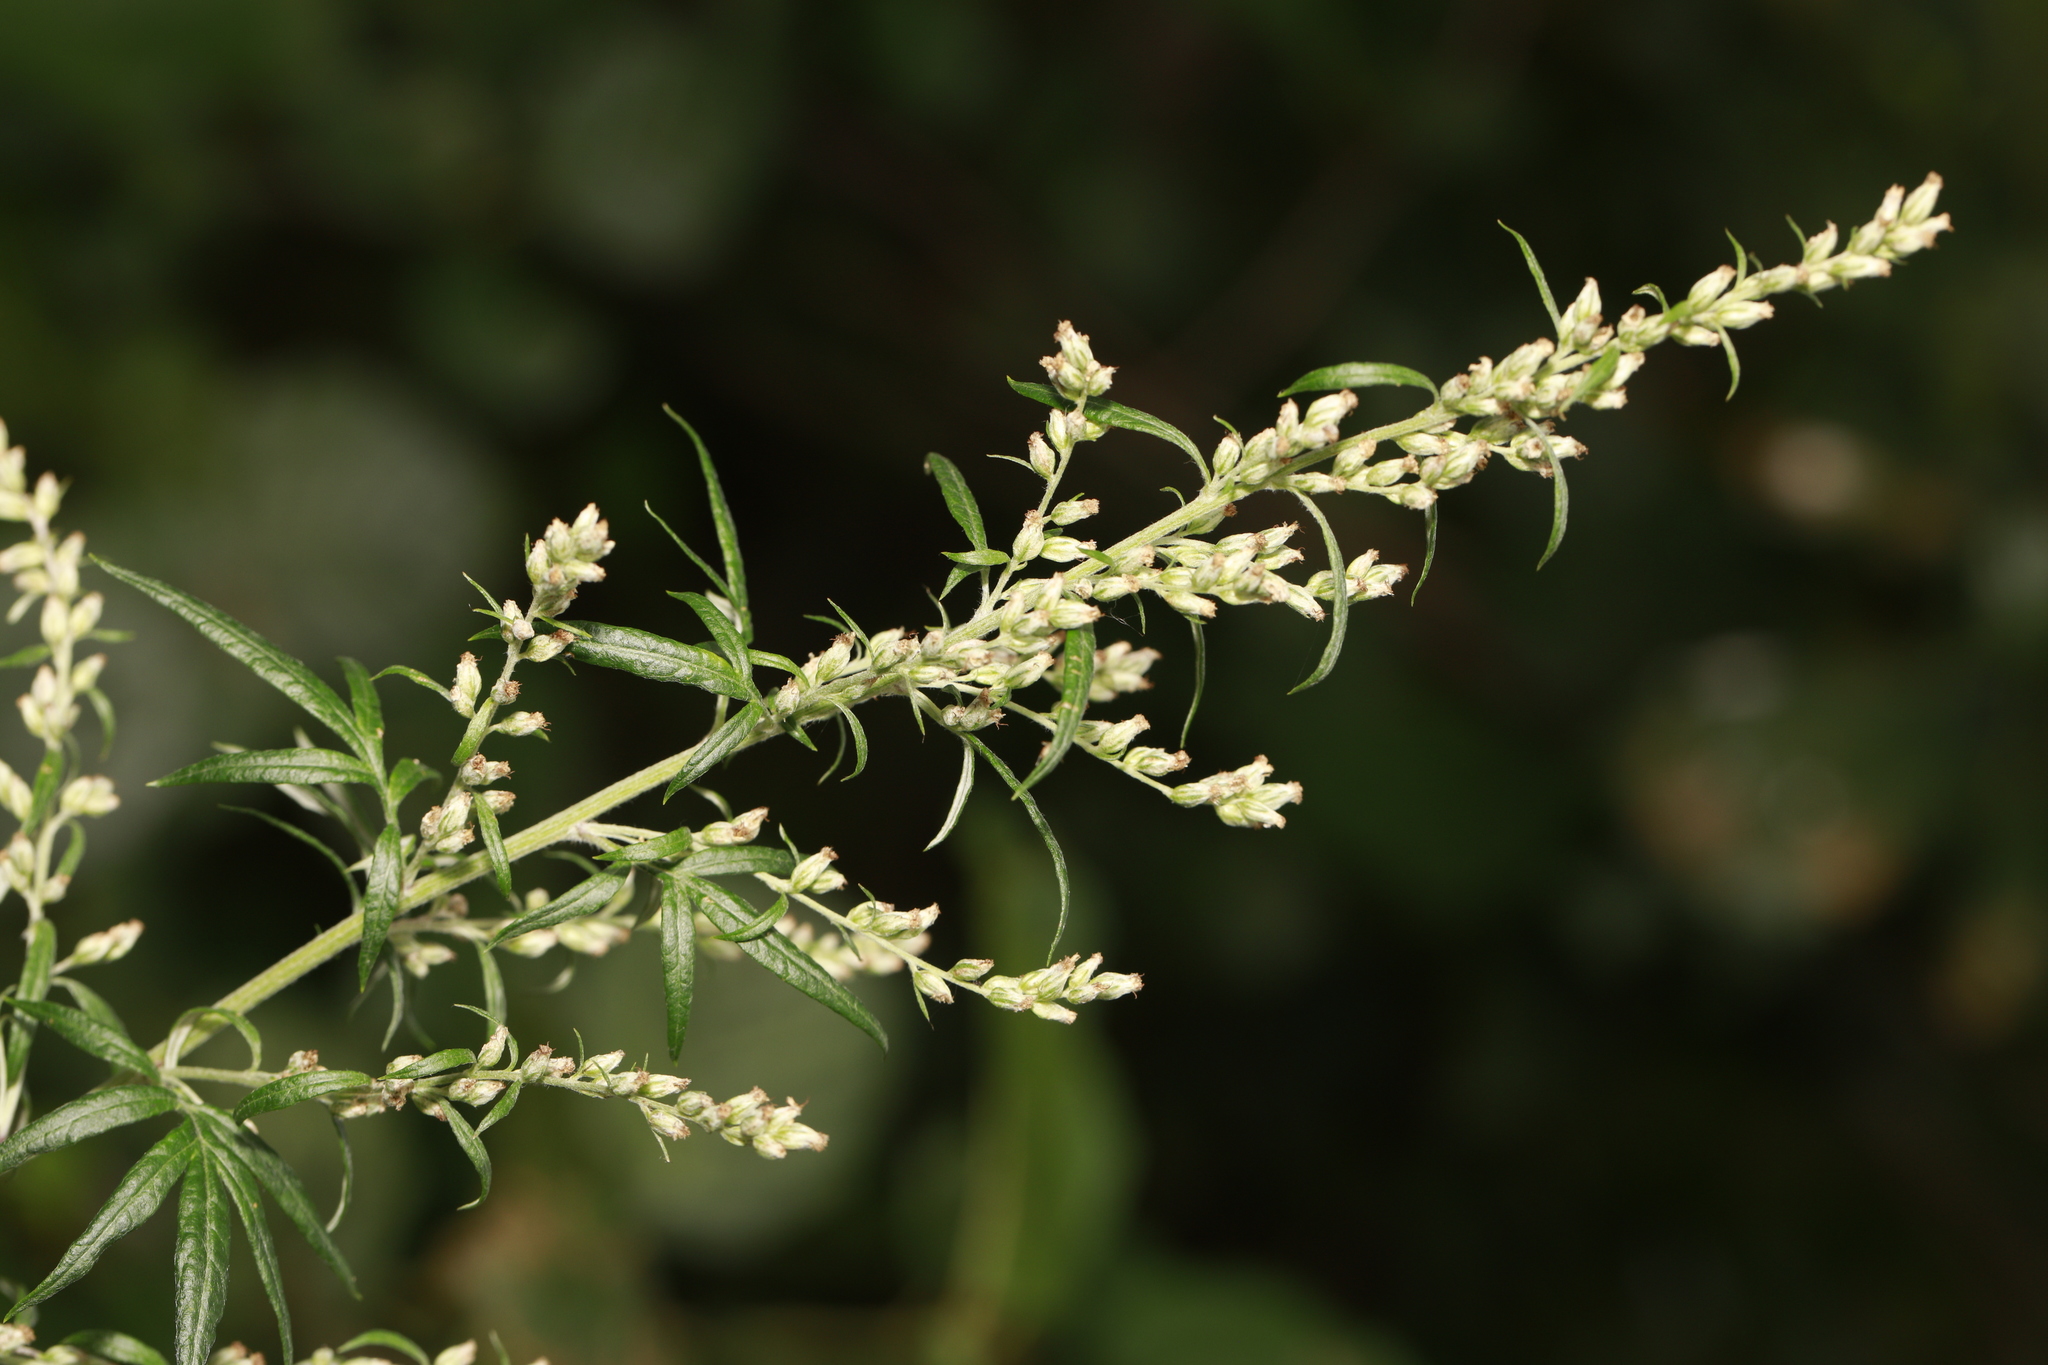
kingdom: Plantae
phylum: Tracheophyta
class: Magnoliopsida
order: Asterales
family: Asteraceae
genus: Artemisia
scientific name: Artemisia vulgaris
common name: Mugwort
